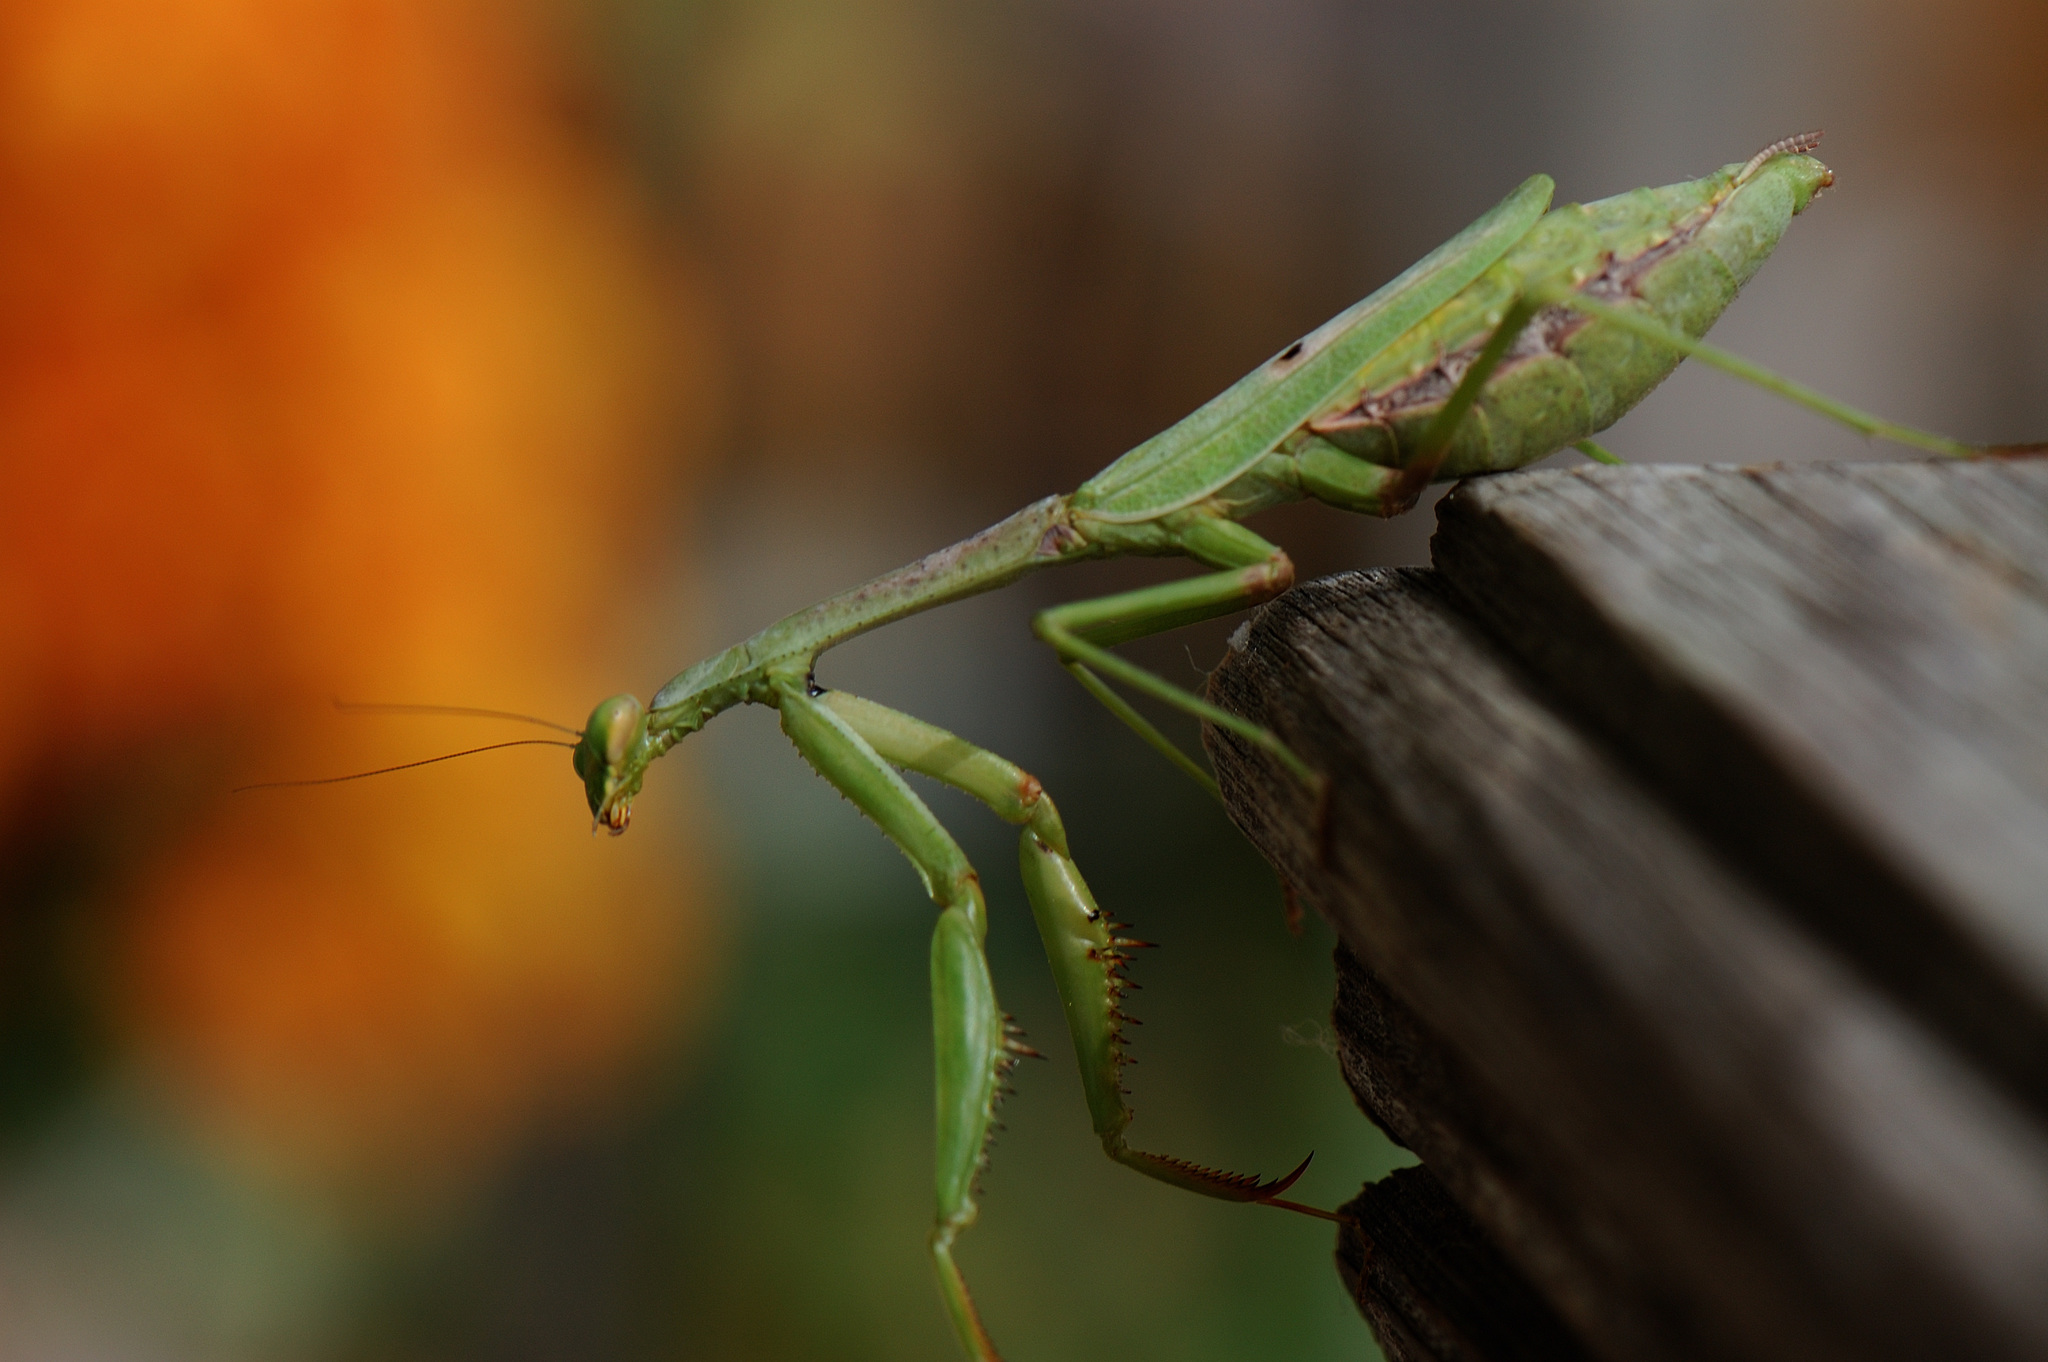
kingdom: Animalia
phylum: Arthropoda
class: Insecta
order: Mantodea
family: Mantidae
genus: Stagmomantis
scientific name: Stagmomantis carolina
